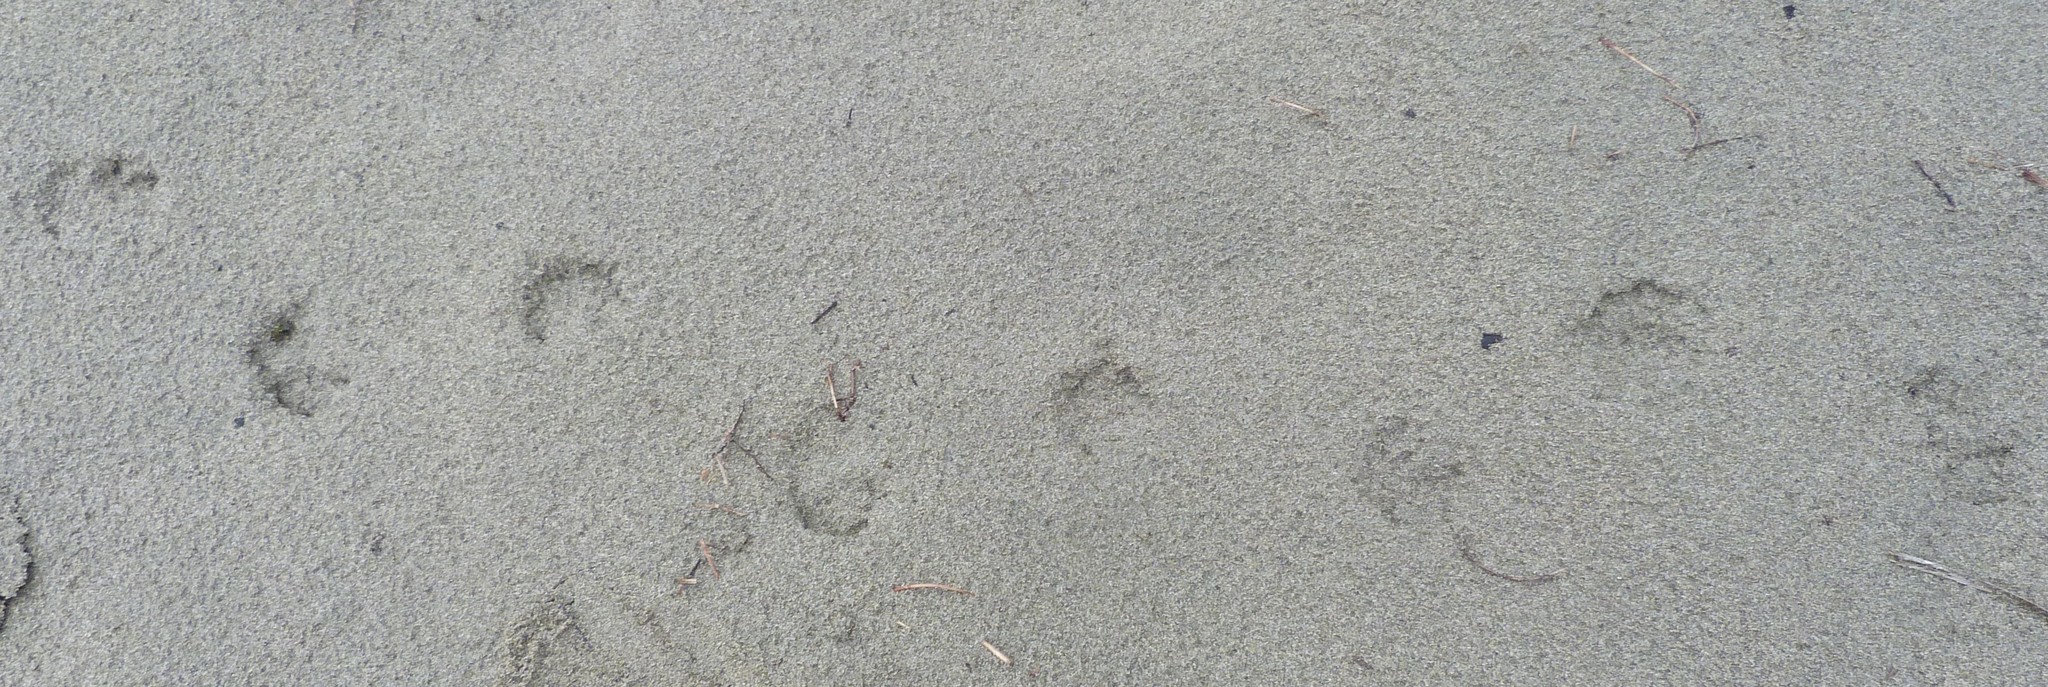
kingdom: Animalia
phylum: Chordata
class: Mammalia
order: Carnivora
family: Felidae
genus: Felis
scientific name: Felis catus
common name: Domestic cat
